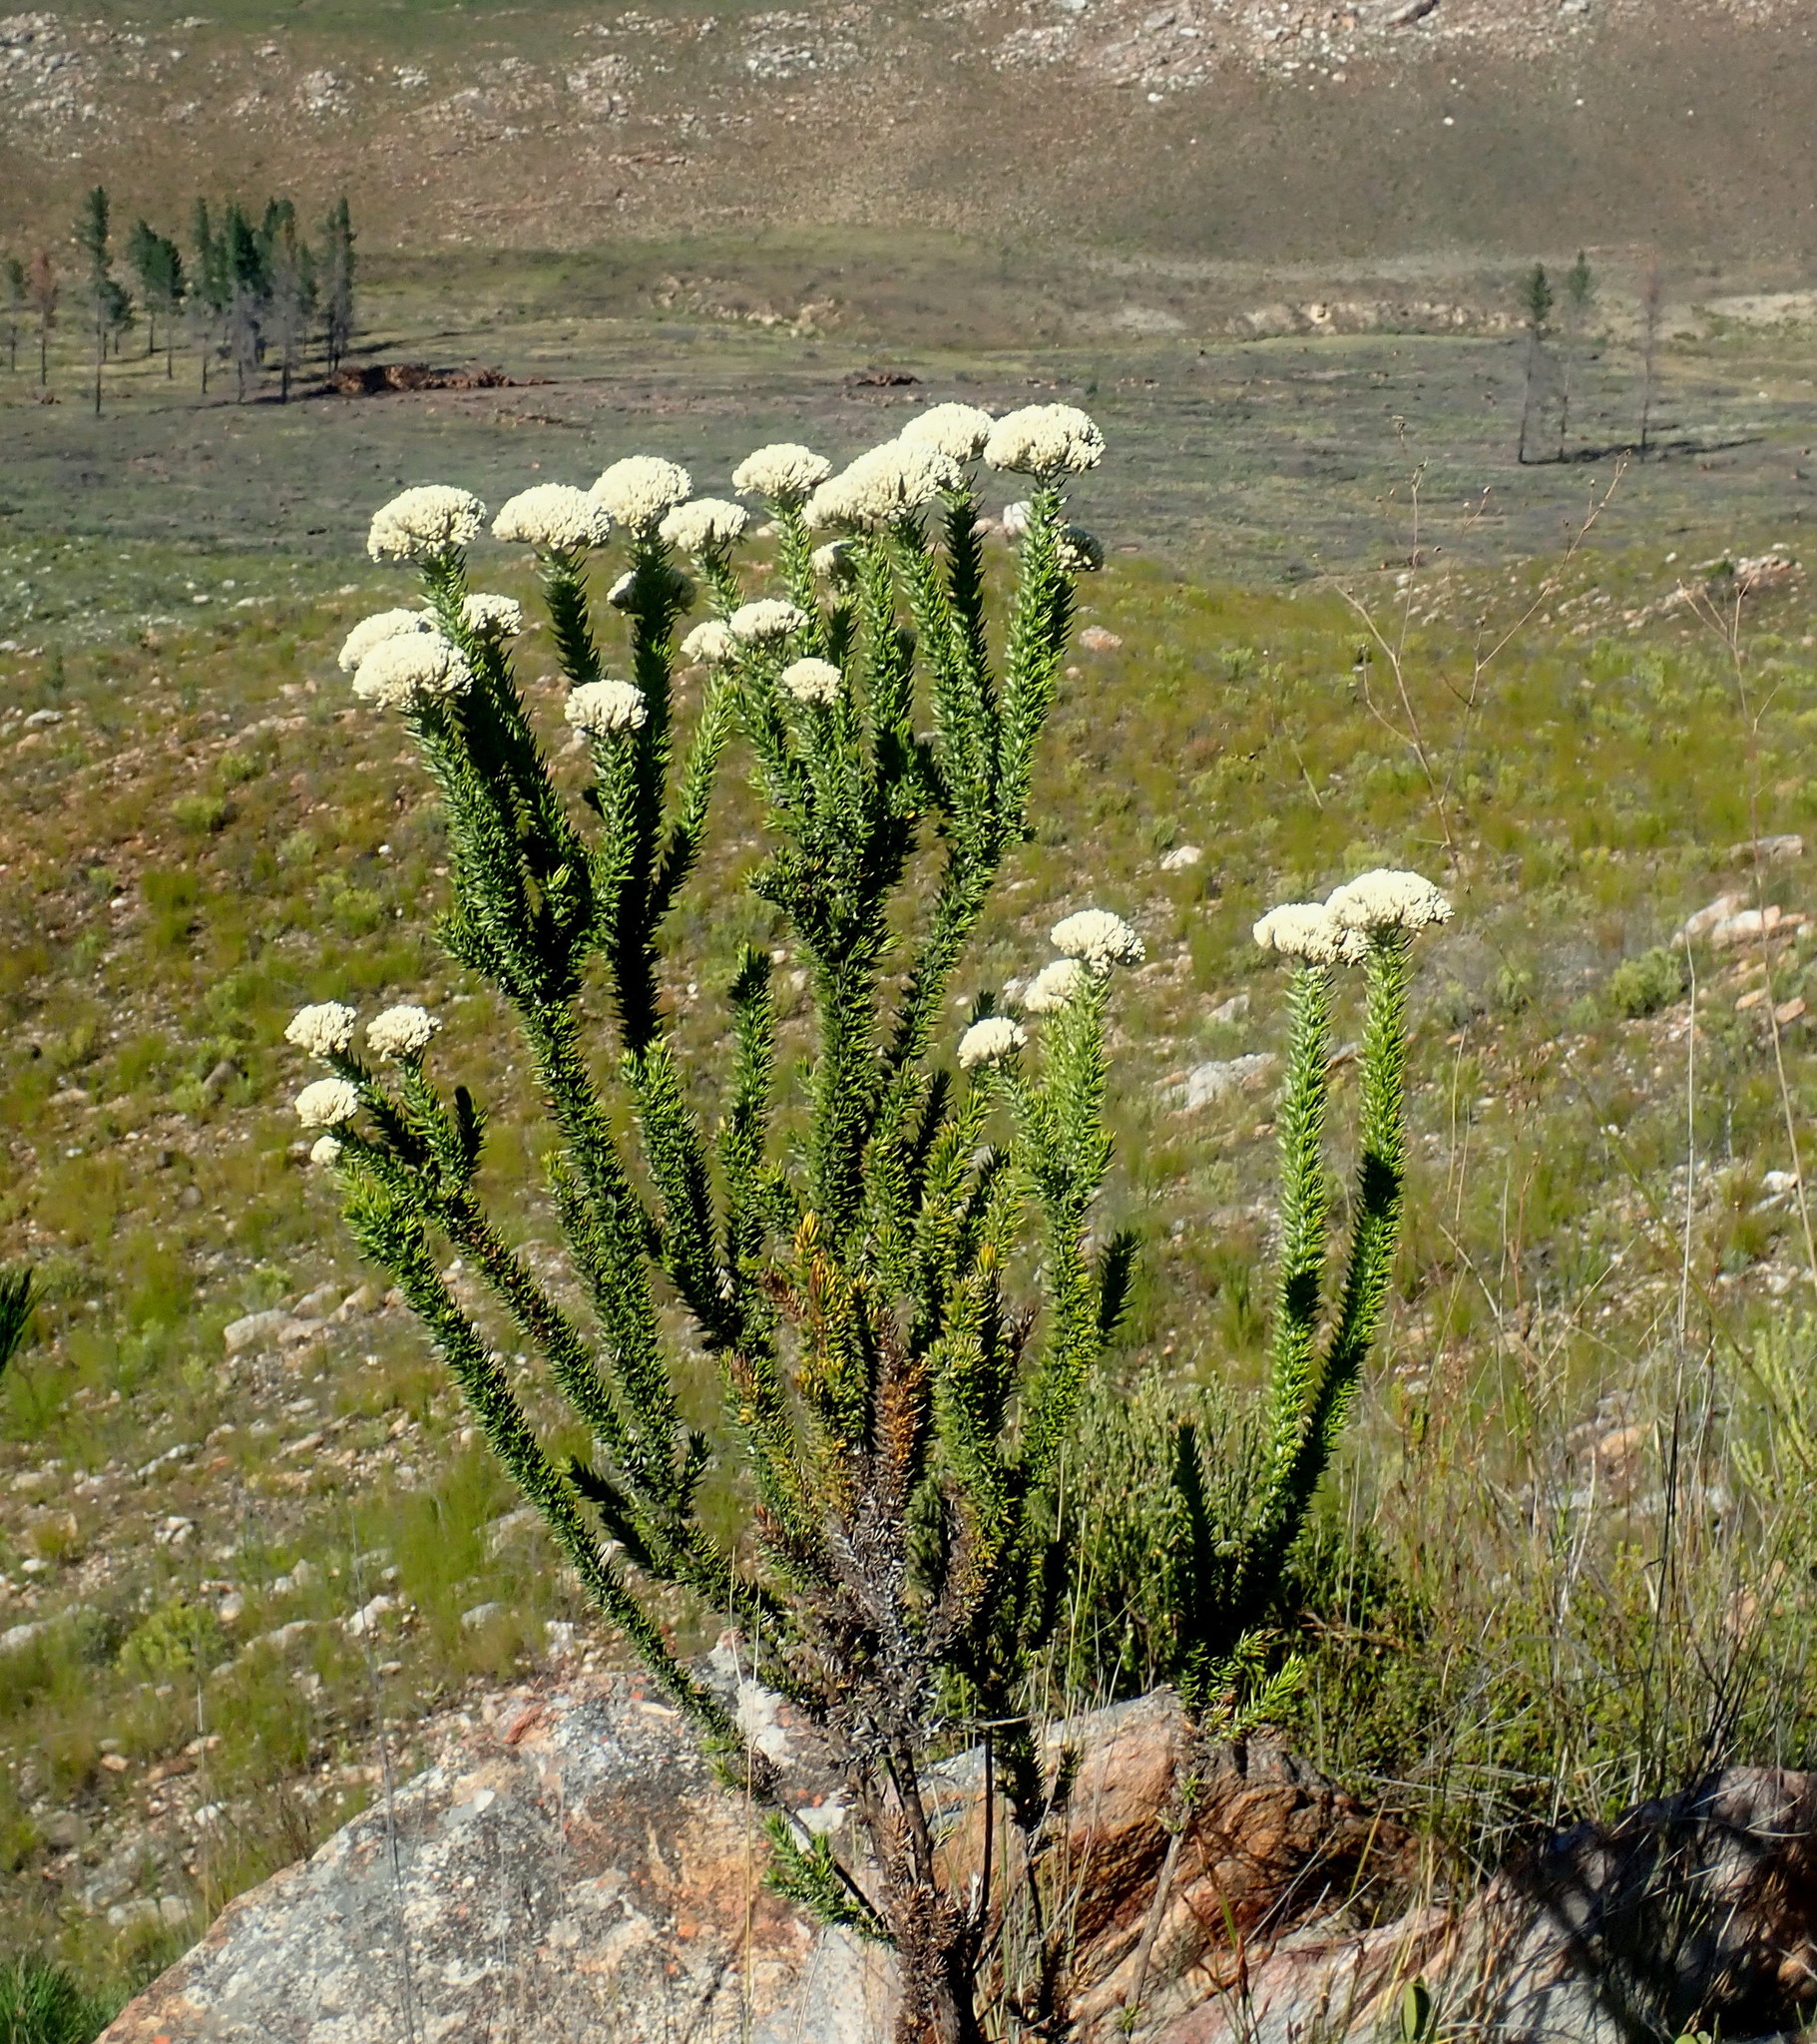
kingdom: Plantae
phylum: Tracheophyta
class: Magnoliopsida
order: Asterales
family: Asteraceae
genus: Metalasia
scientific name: Metalasia trivialis
